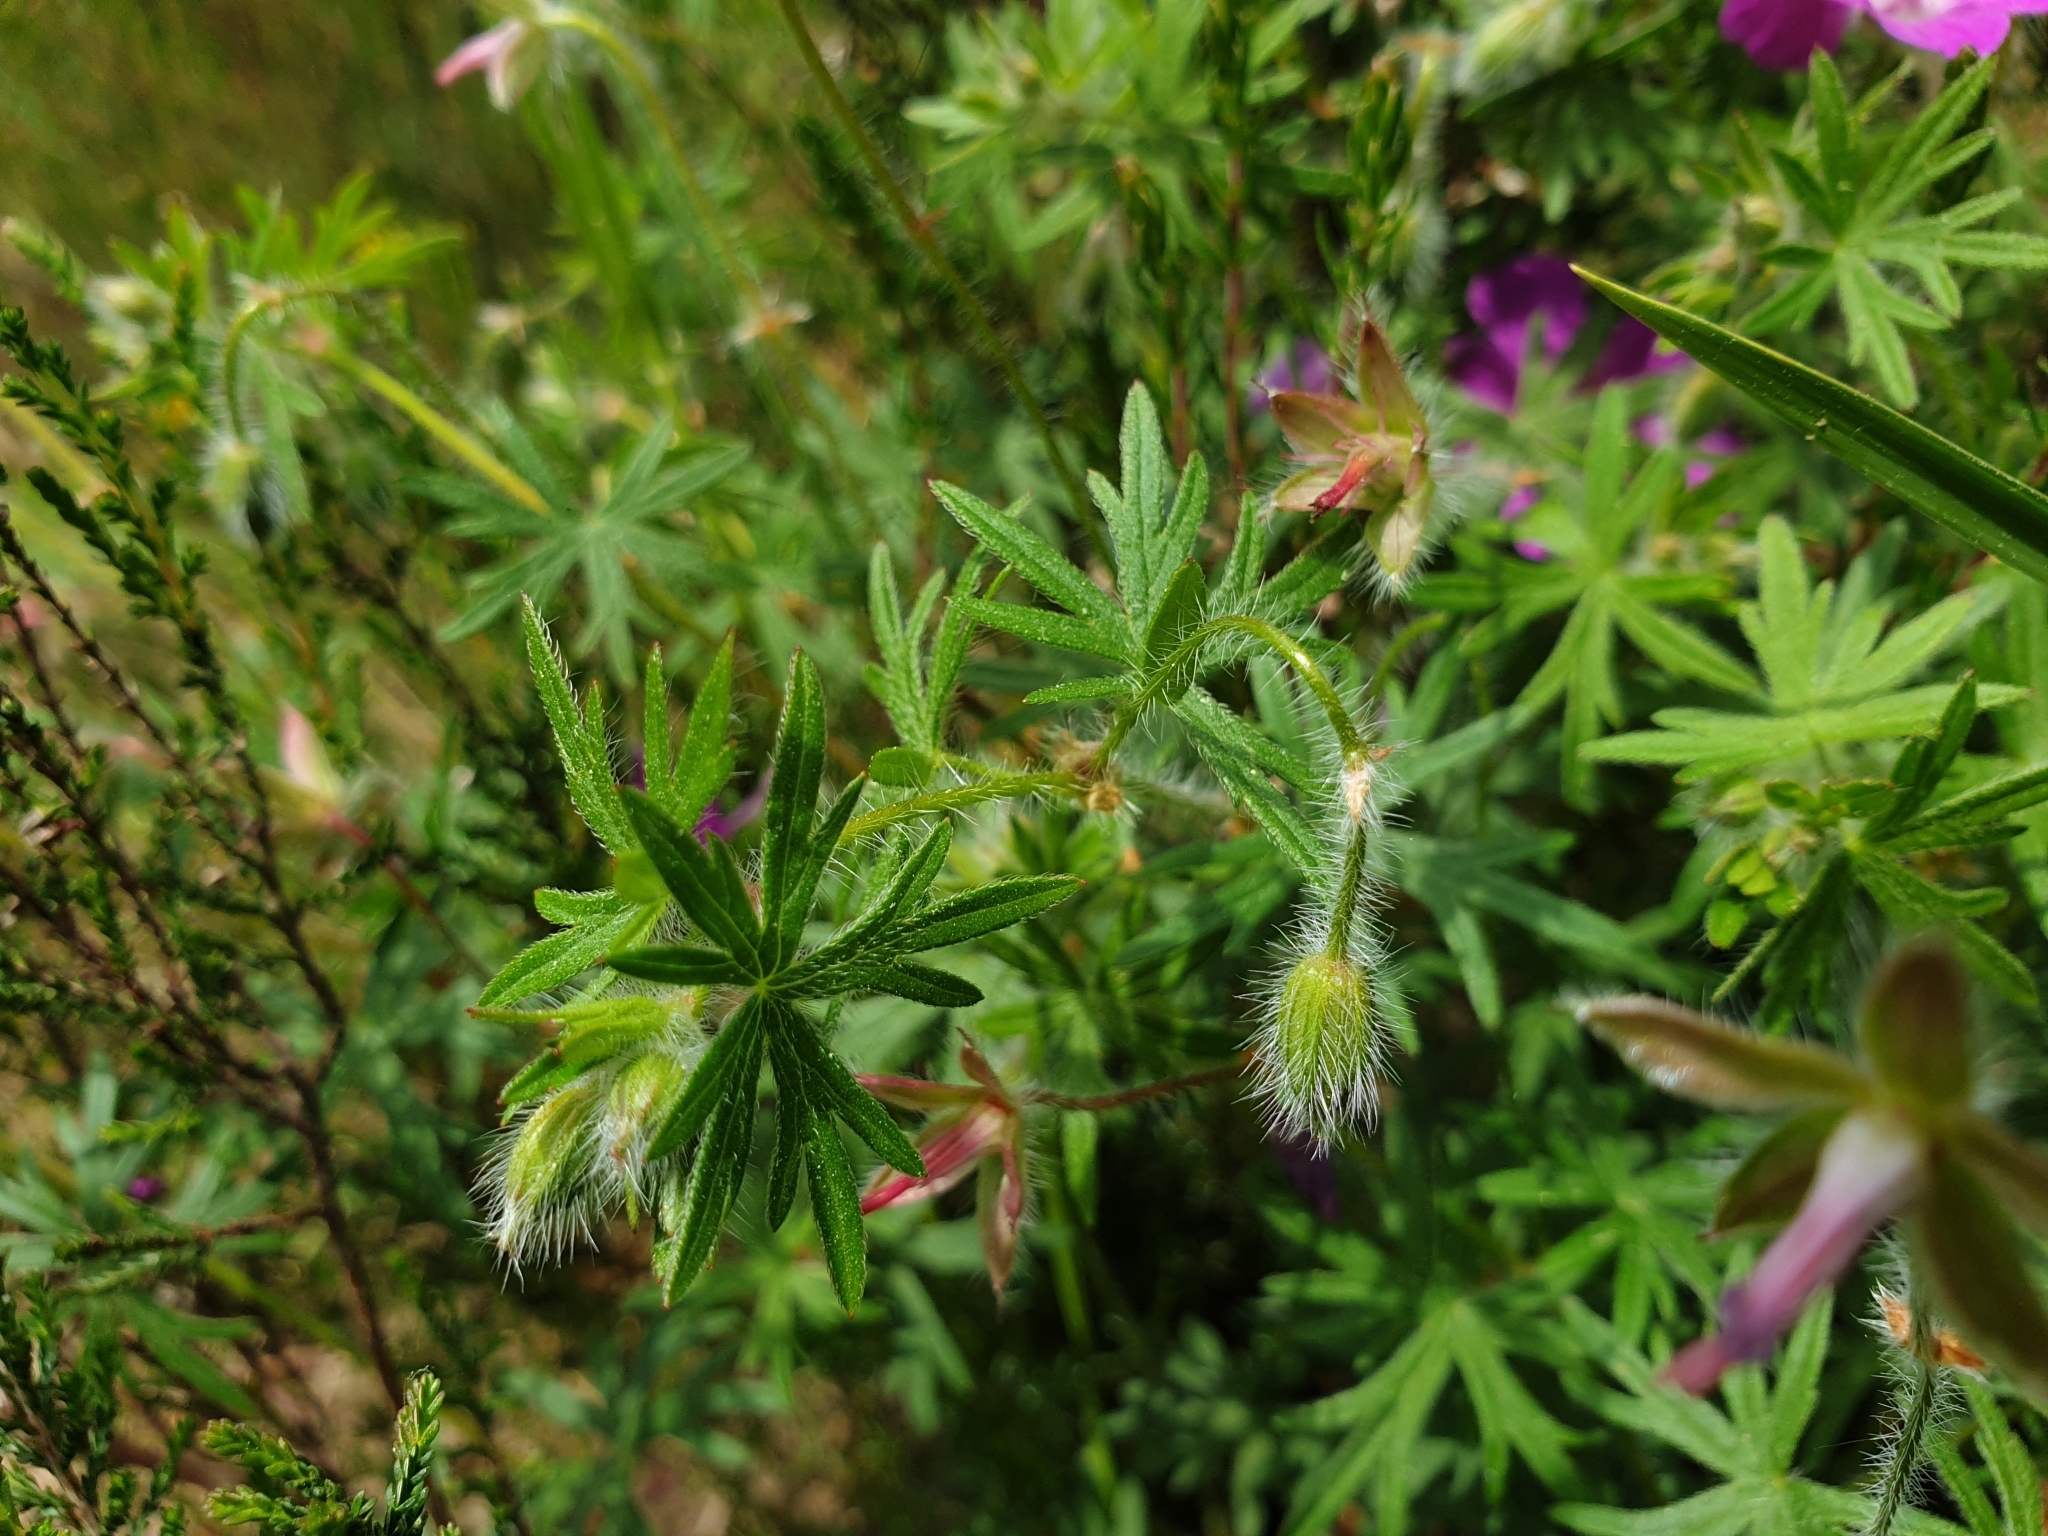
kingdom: Plantae
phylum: Tracheophyta
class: Magnoliopsida
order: Geraniales
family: Geraniaceae
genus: Geranium
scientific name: Geranium sanguineum
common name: Bloody crane's-bill
